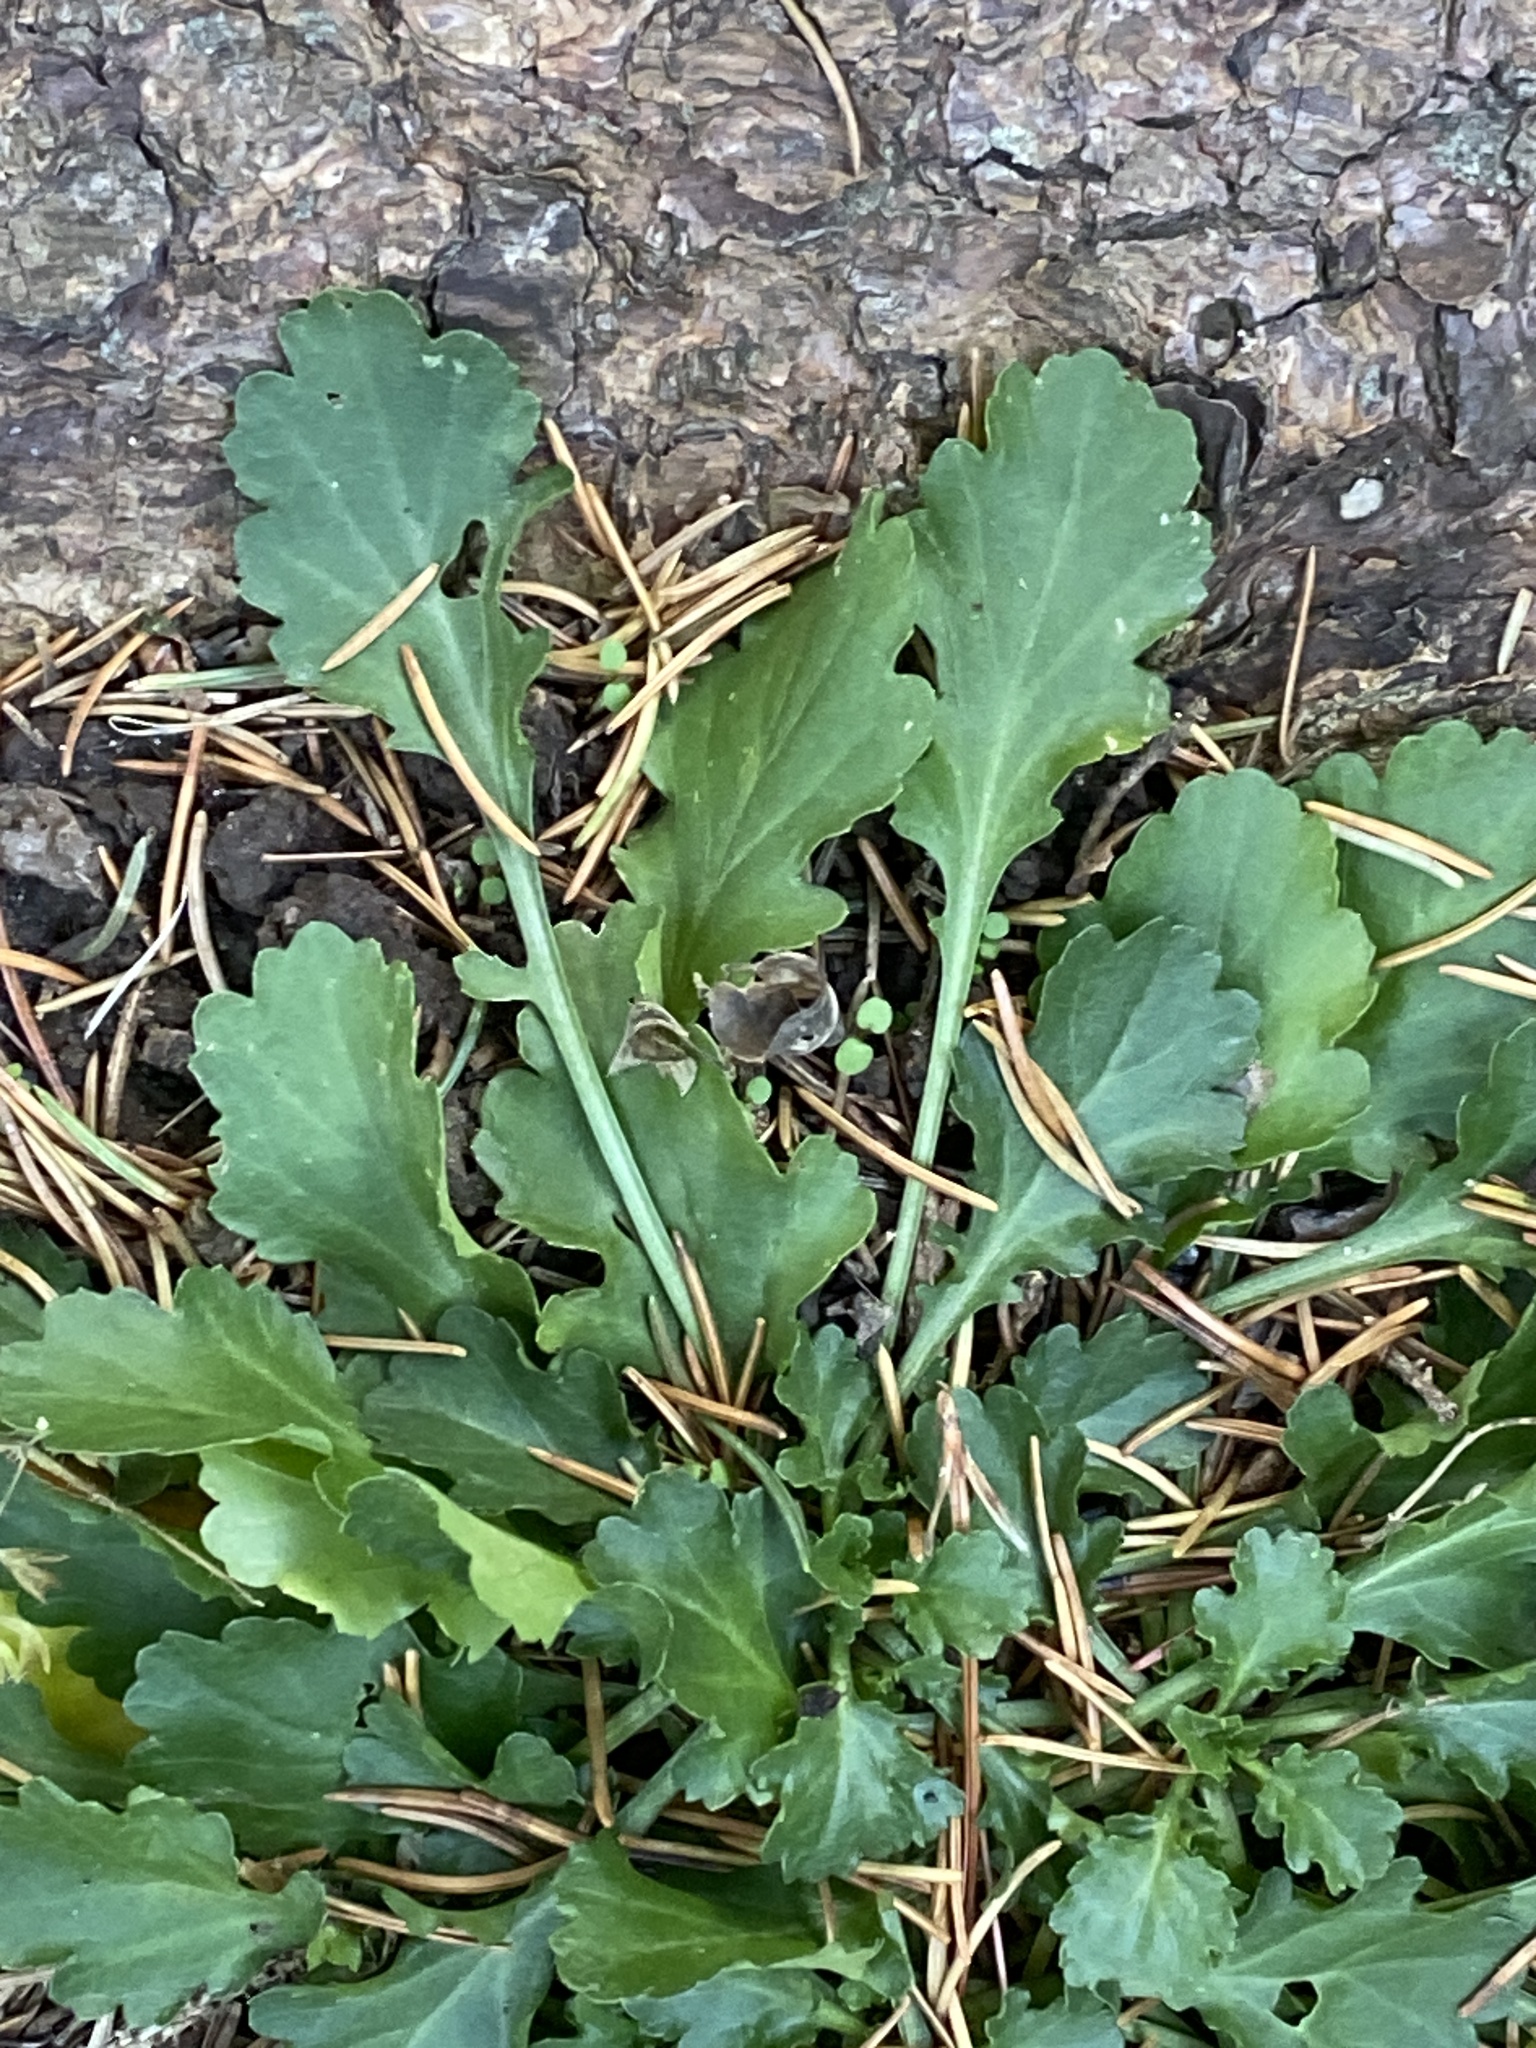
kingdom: Plantae
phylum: Tracheophyta
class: Magnoliopsida
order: Asterales
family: Asteraceae
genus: Leucanthemum
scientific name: Leucanthemum vulgare
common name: Oxeye daisy
